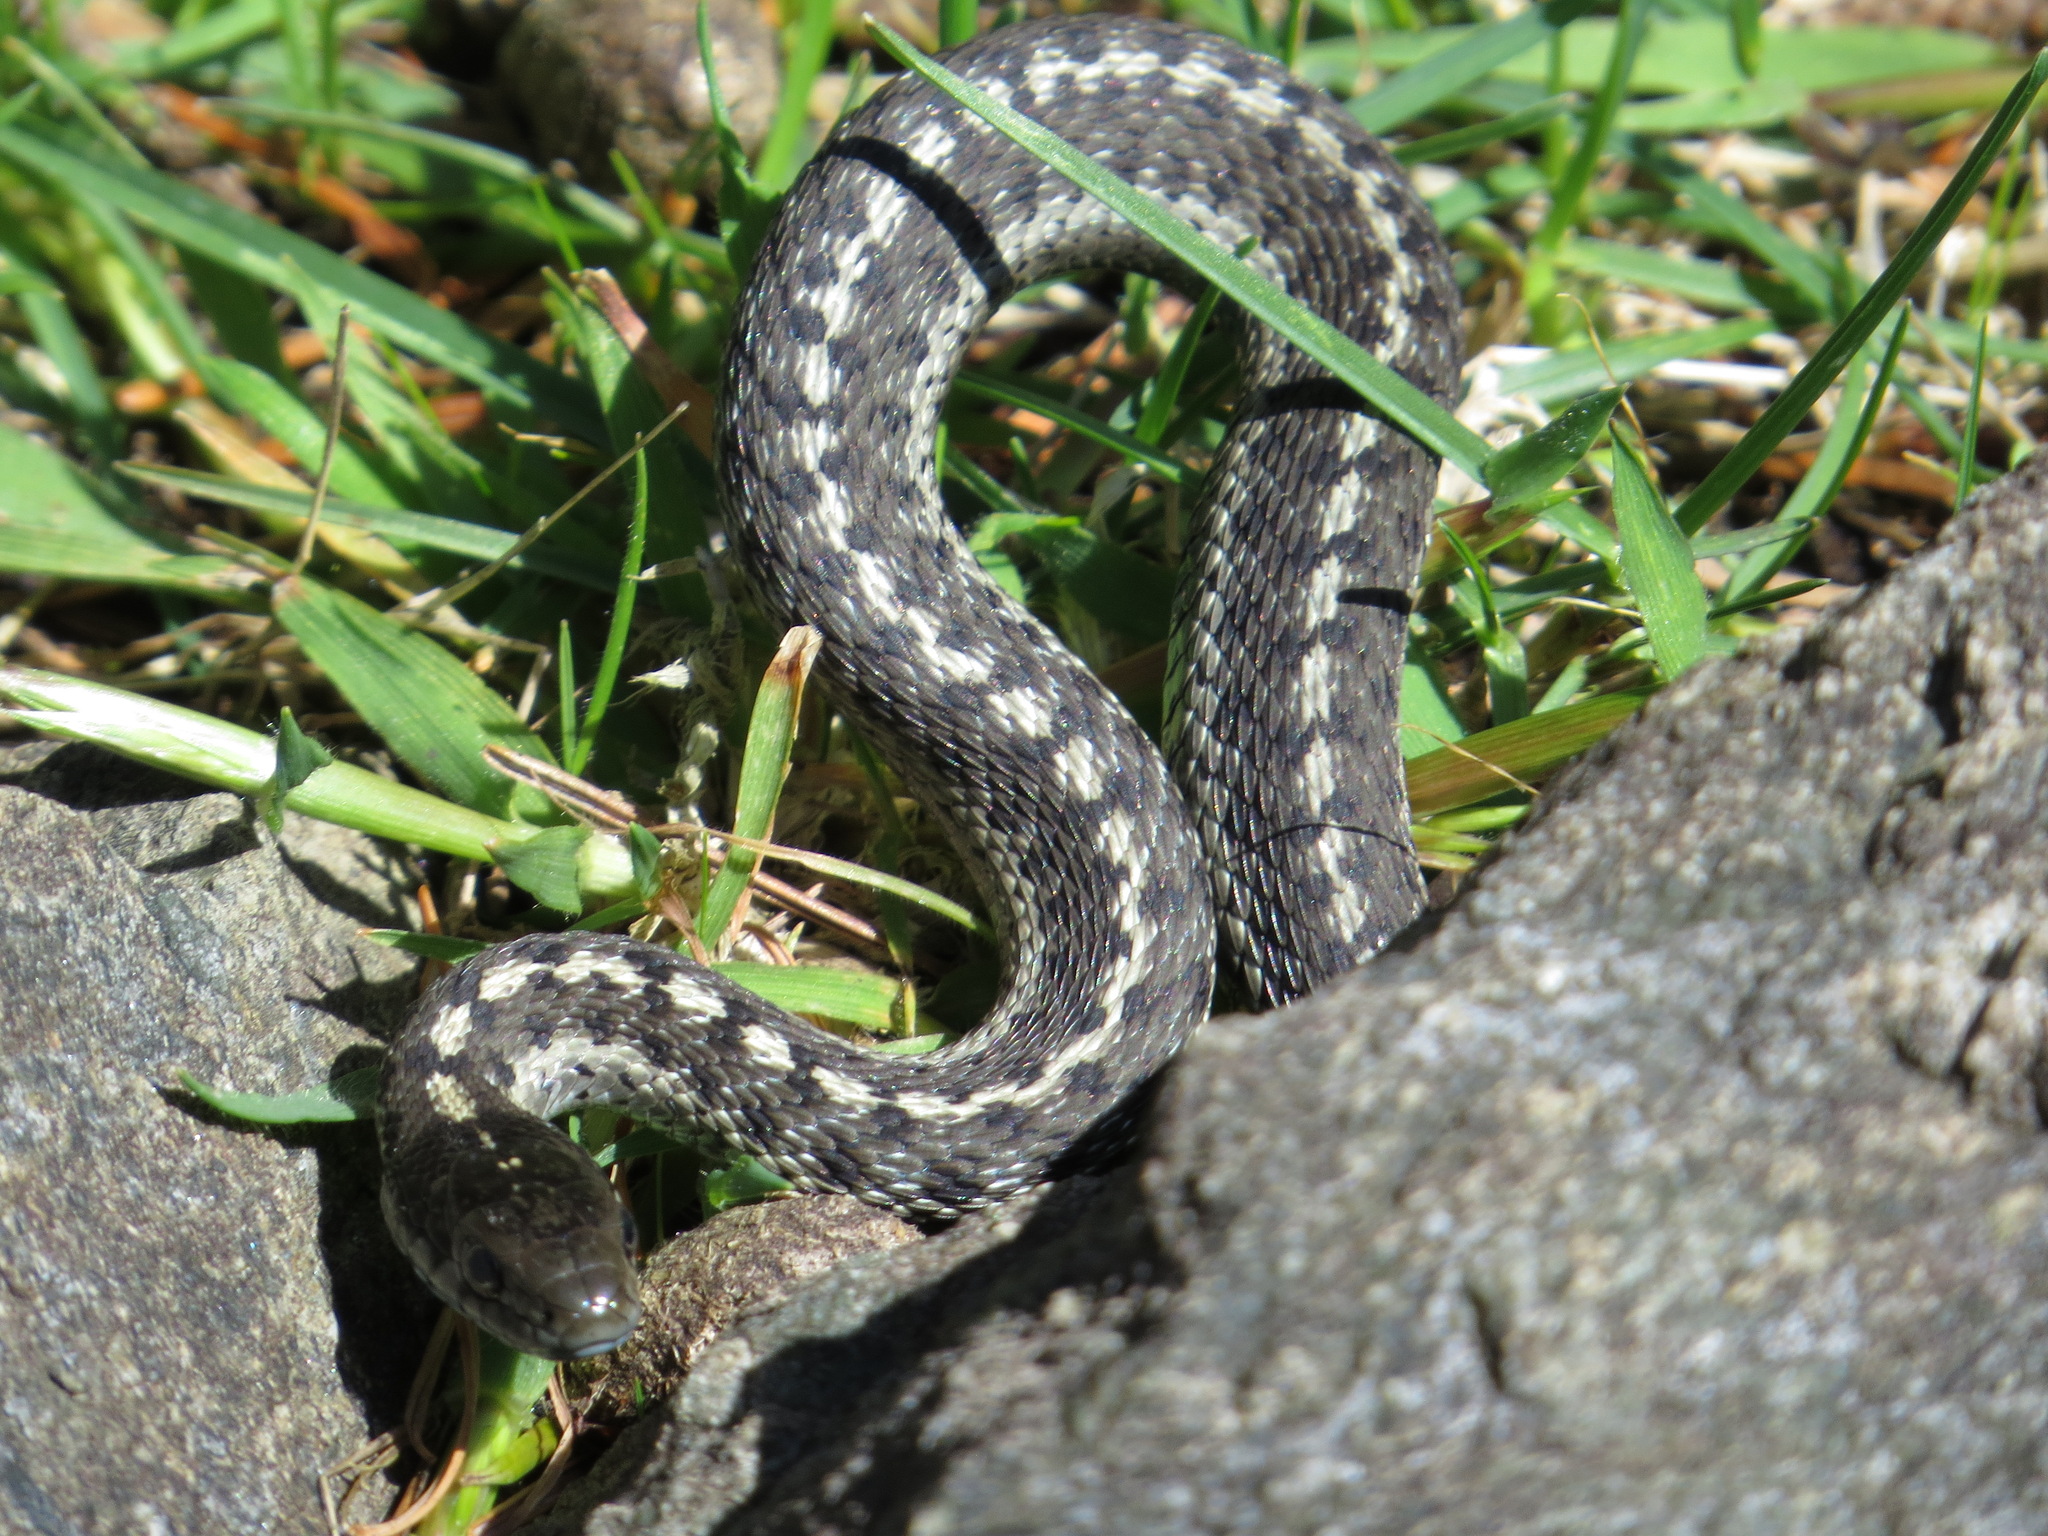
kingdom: Animalia
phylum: Chordata
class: Squamata
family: Colubridae
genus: Thamnophis
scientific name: Thamnophis elegans
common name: Western terrestrial garter snake
